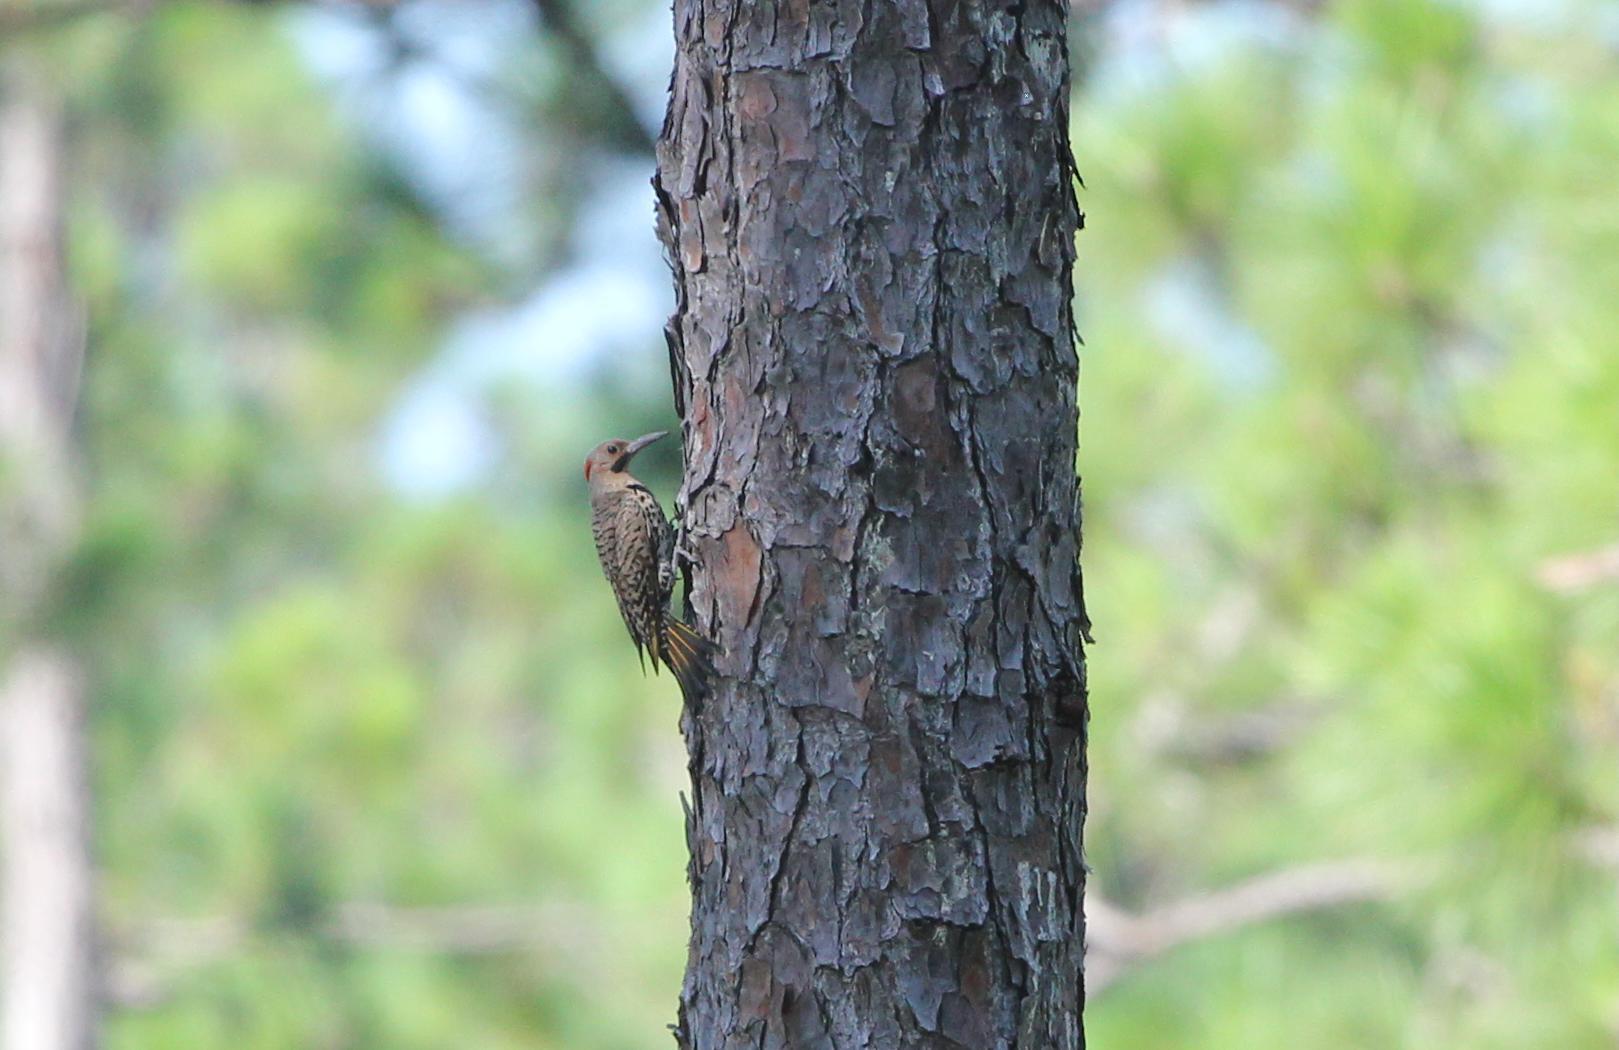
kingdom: Animalia
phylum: Chordata
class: Aves
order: Piciformes
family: Picidae
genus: Colaptes
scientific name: Colaptes auratus
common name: Northern flicker
